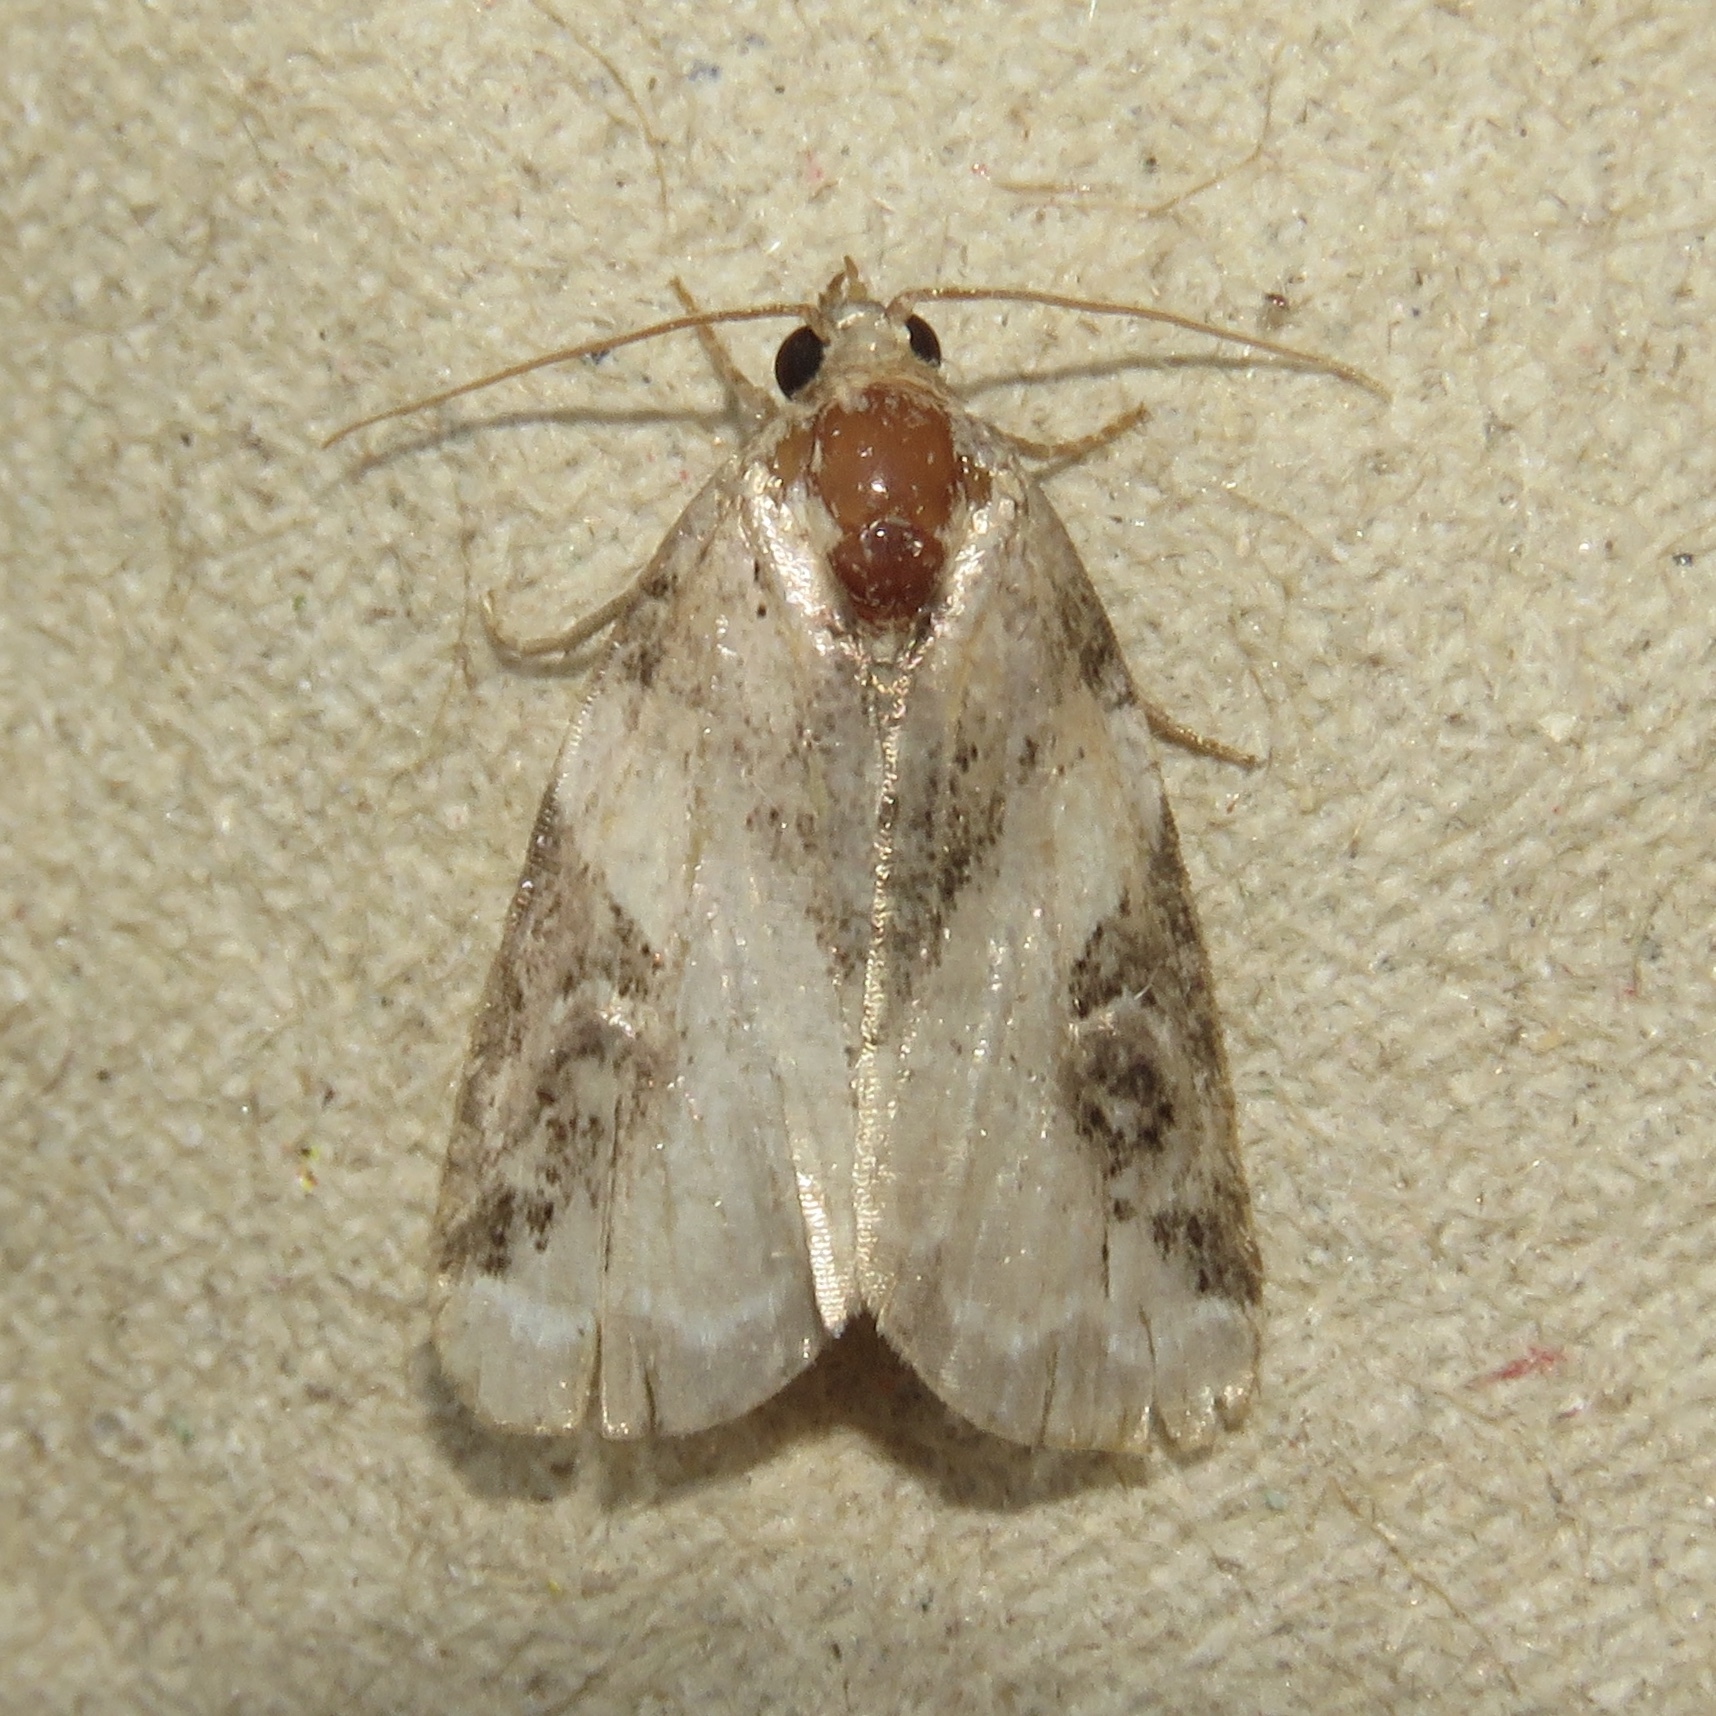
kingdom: Animalia
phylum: Arthropoda
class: Insecta
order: Lepidoptera
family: Noctuidae
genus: Pseudeustrotia
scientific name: Pseudeustrotia carneola
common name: Pink-barred lithacodia moth
